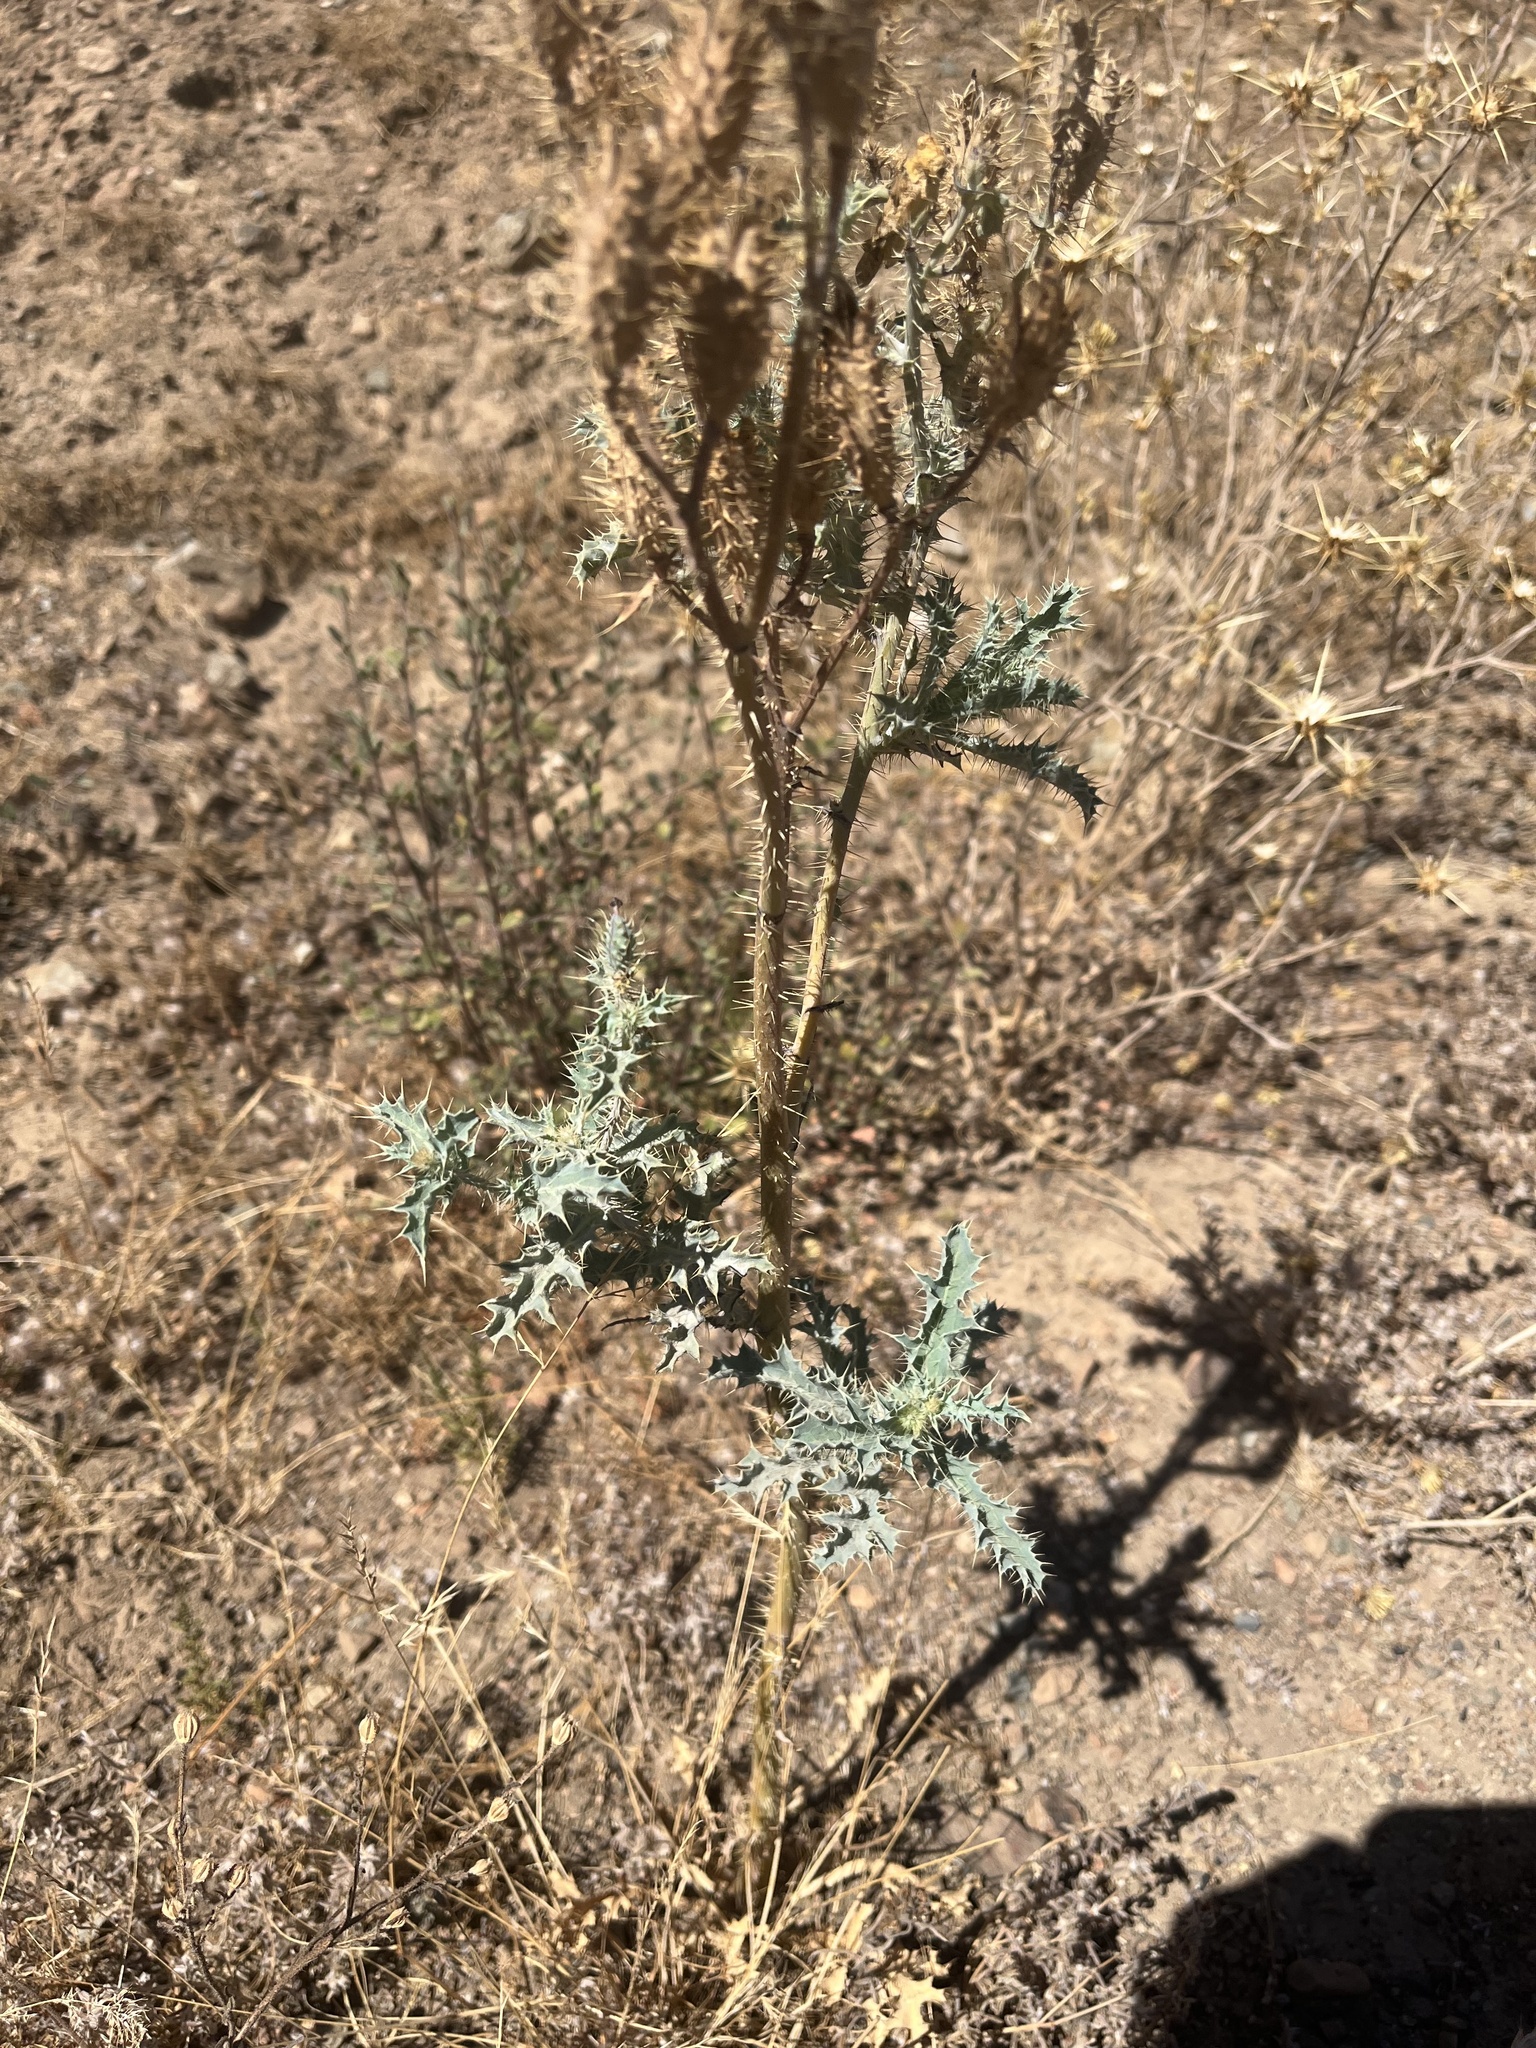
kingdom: Plantae
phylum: Tracheophyta
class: Magnoliopsida
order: Ranunculales
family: Papaveraceae
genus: Argemone
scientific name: Argemone munita
